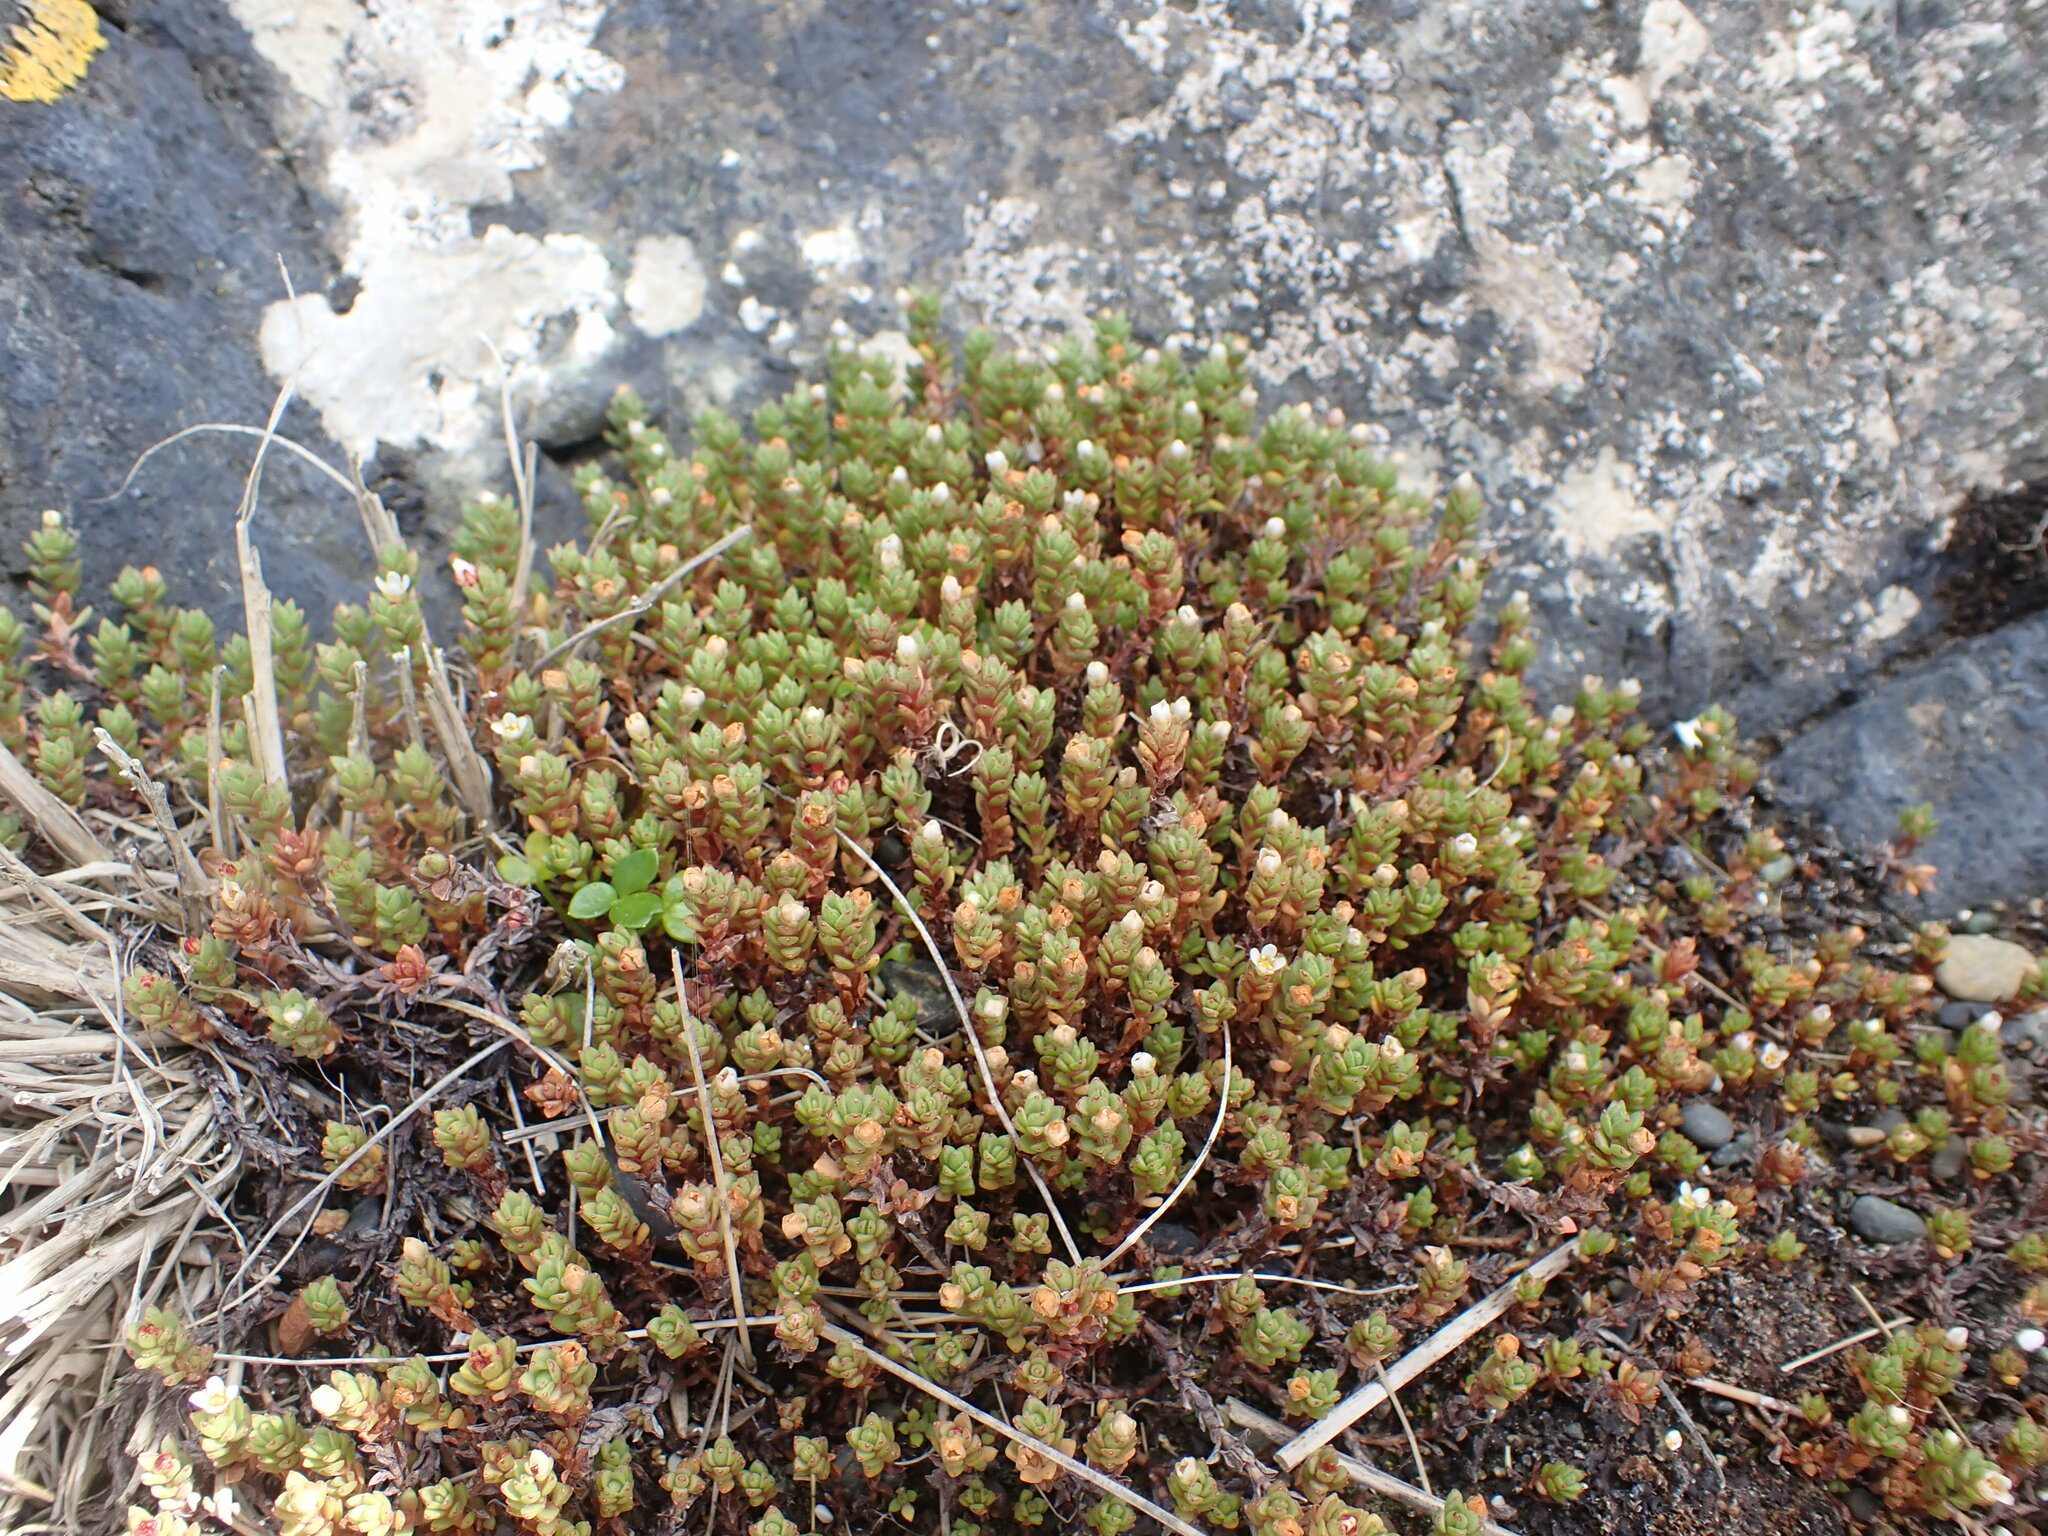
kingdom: Plantae
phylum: Tracheophyta
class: Magnoliopsida
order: Saxifragales
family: Crassulaceae
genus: Crassula
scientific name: Crassula moschata
